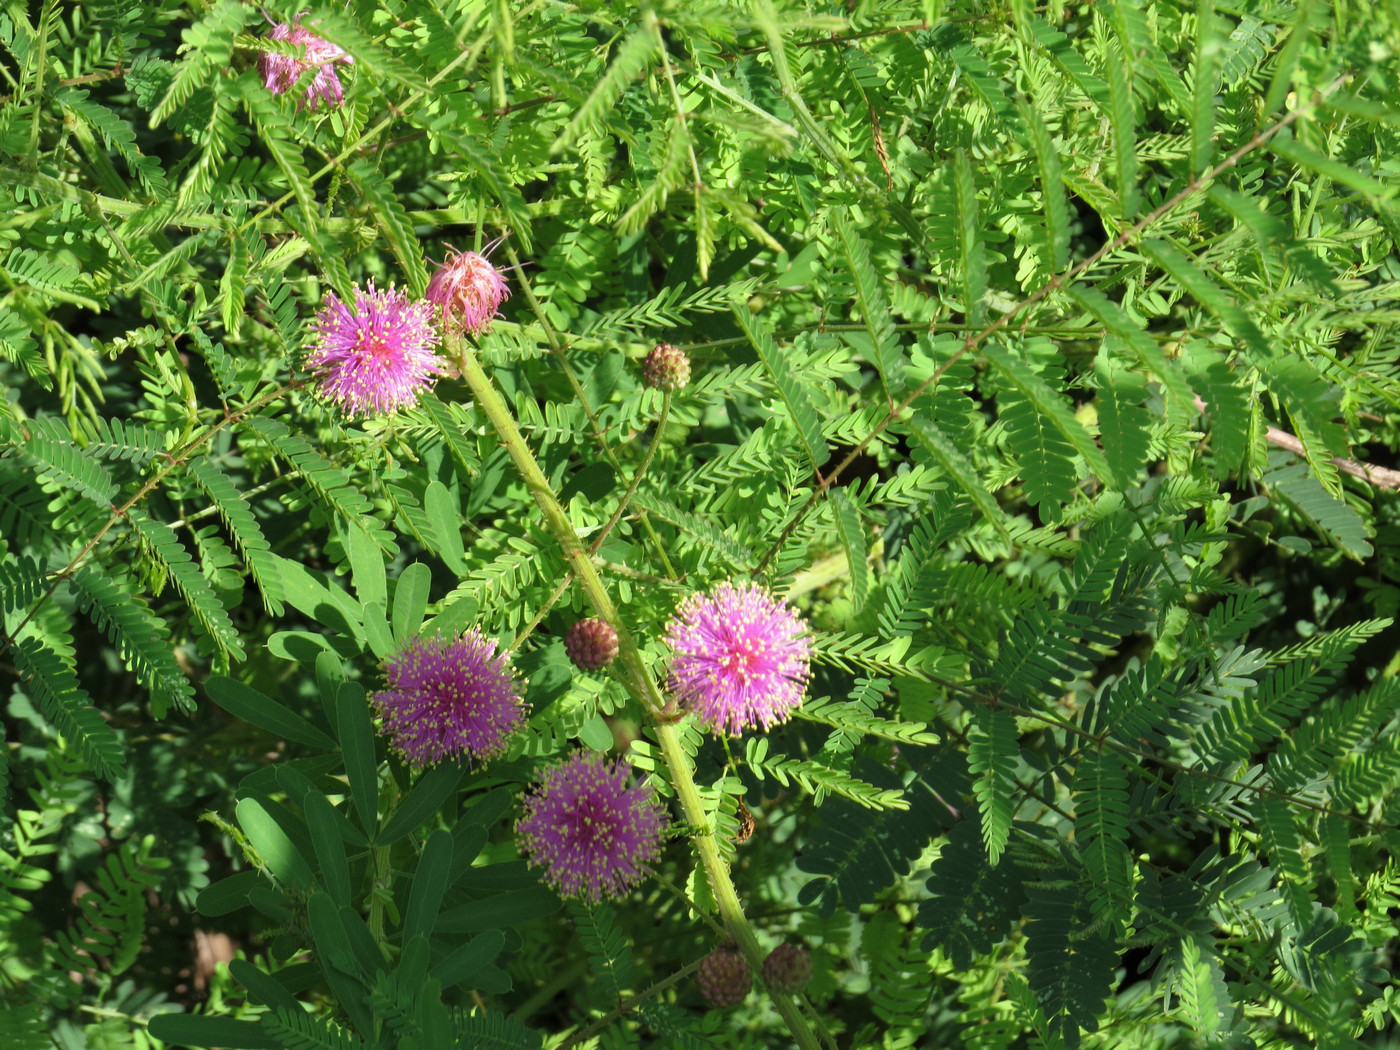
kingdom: Plantae
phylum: Tracheophyta
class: Magnoliopsida
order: Fabales
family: Fabaceae
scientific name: Fabaceae
